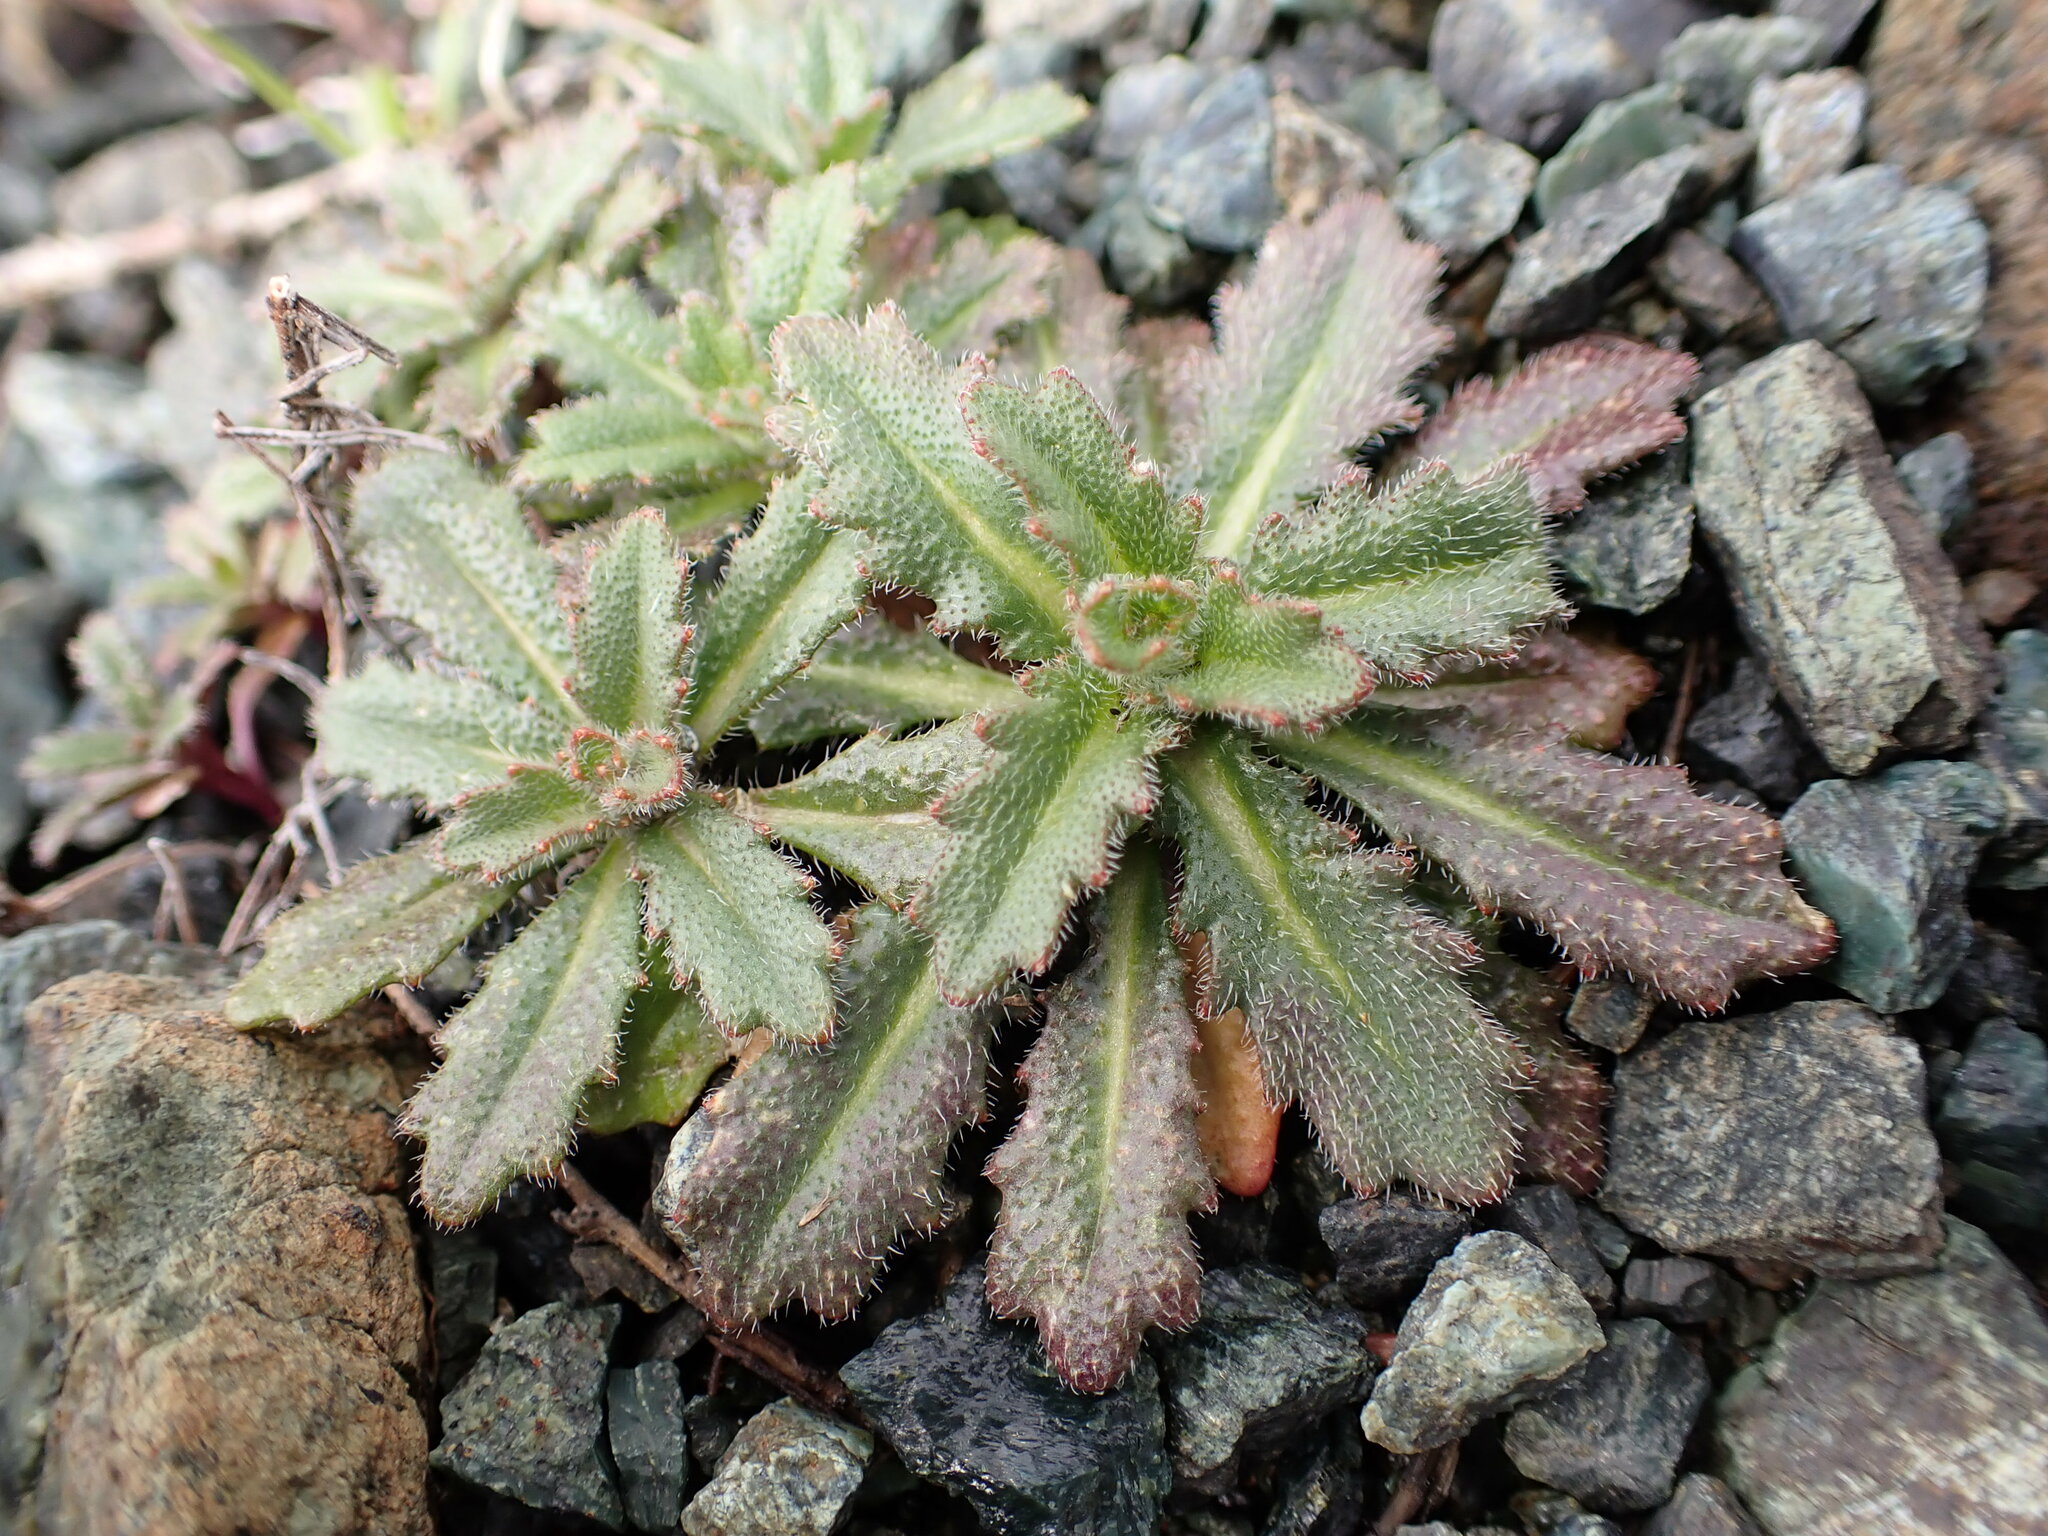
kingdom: Plantae
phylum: Tracheophyta
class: Magnoliopsida
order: Brassicales
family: Brassicaceae
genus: Streptanthus
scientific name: Streptanthus glandulosus
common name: Jewel-flower
